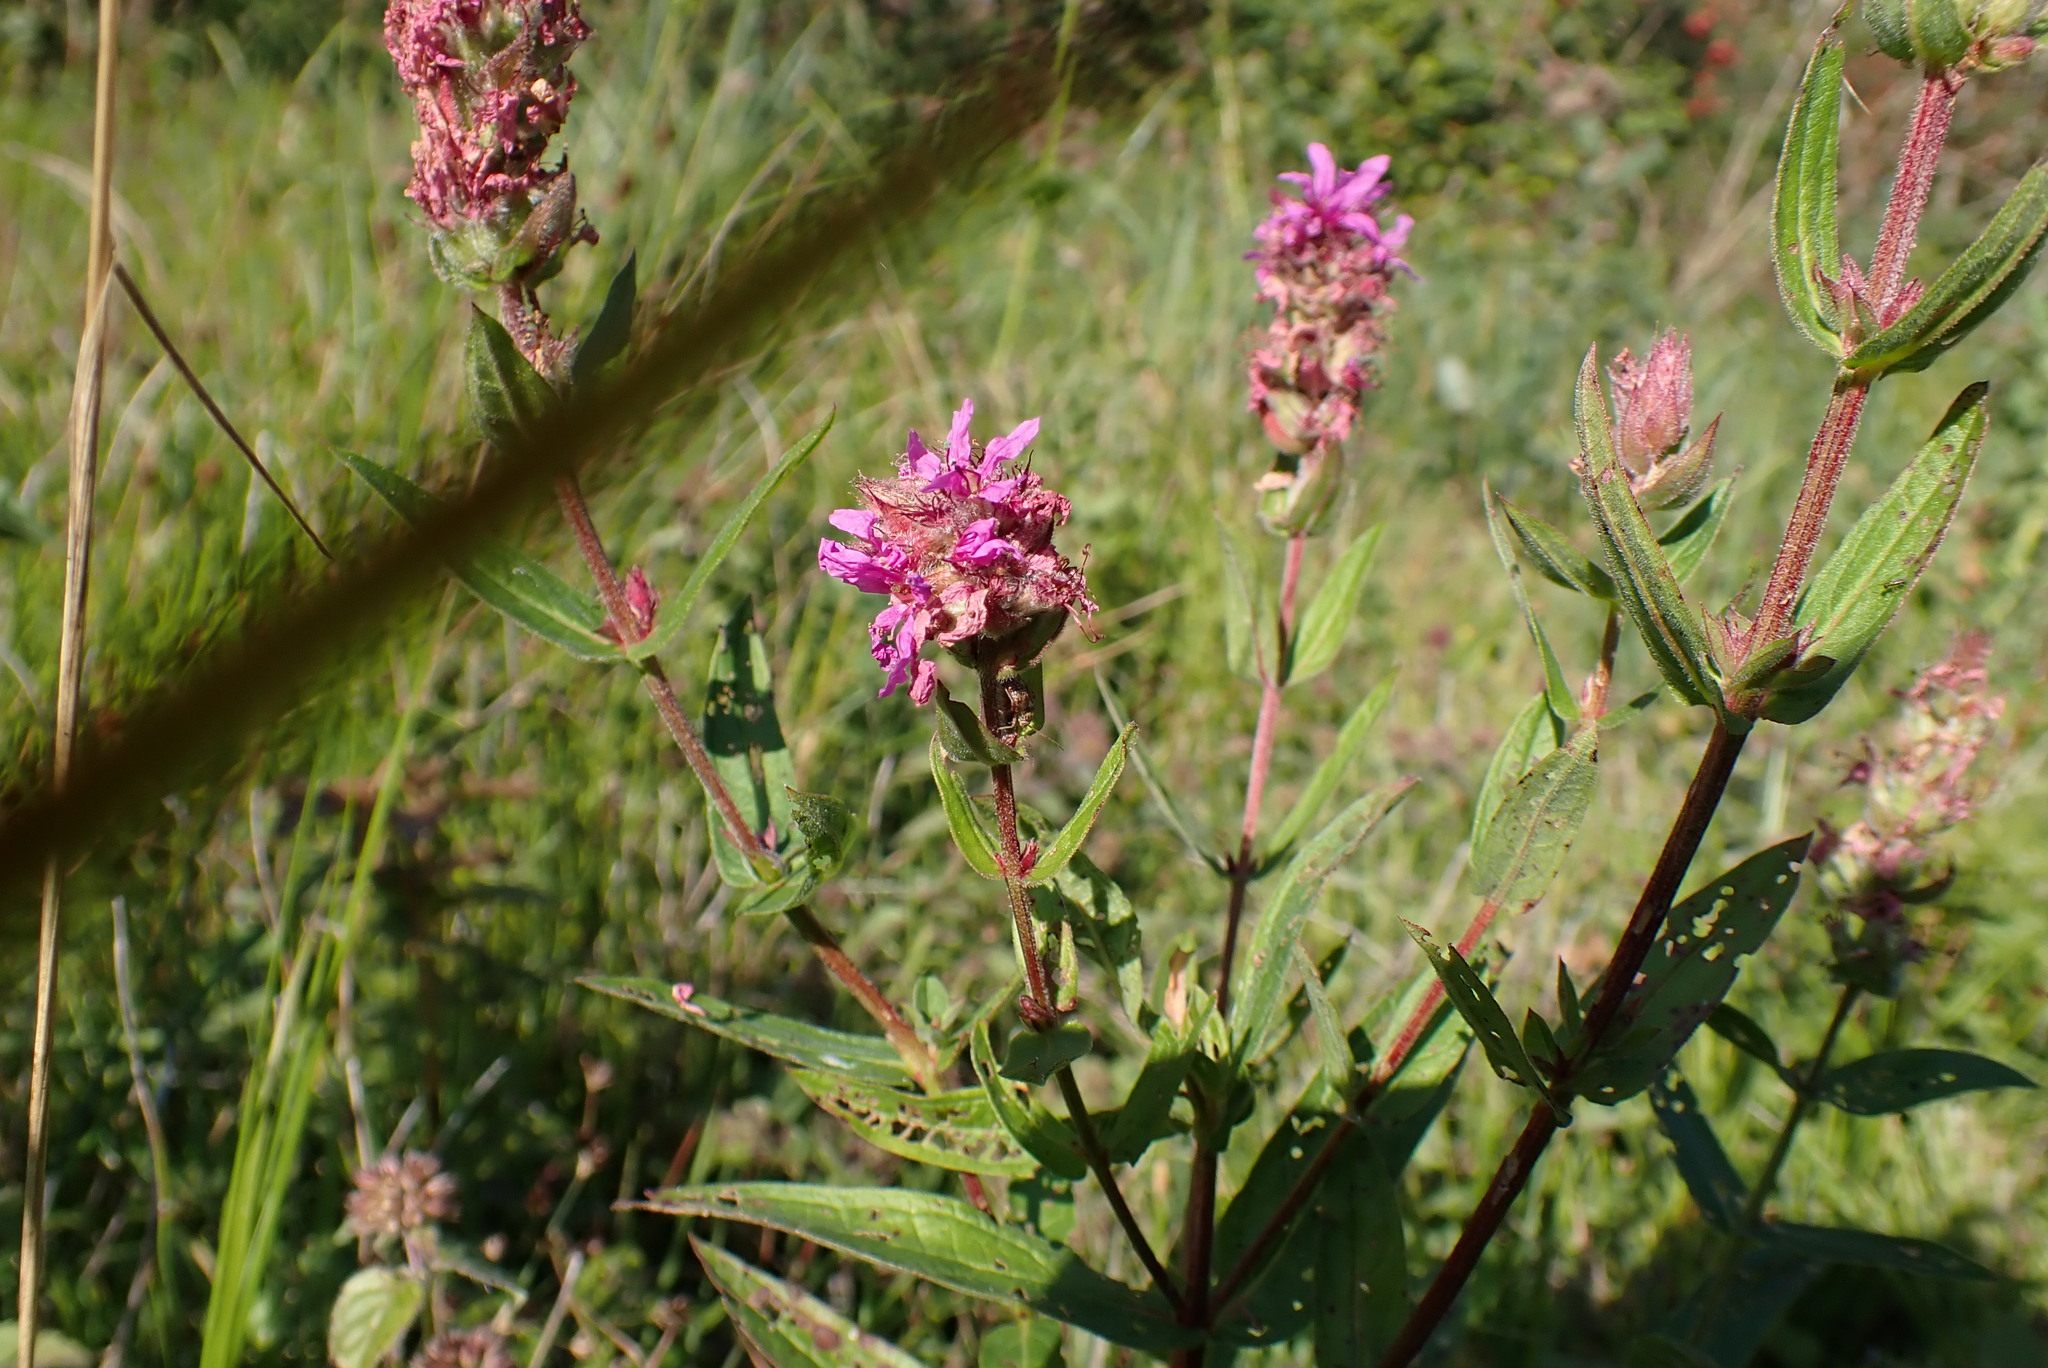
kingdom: Plantae
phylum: Tracheophyta
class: Magnoliopsida
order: Myrtales
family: Lythraceae
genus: Lythrum
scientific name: Lythrum salicaria
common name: Purple loosestrife
